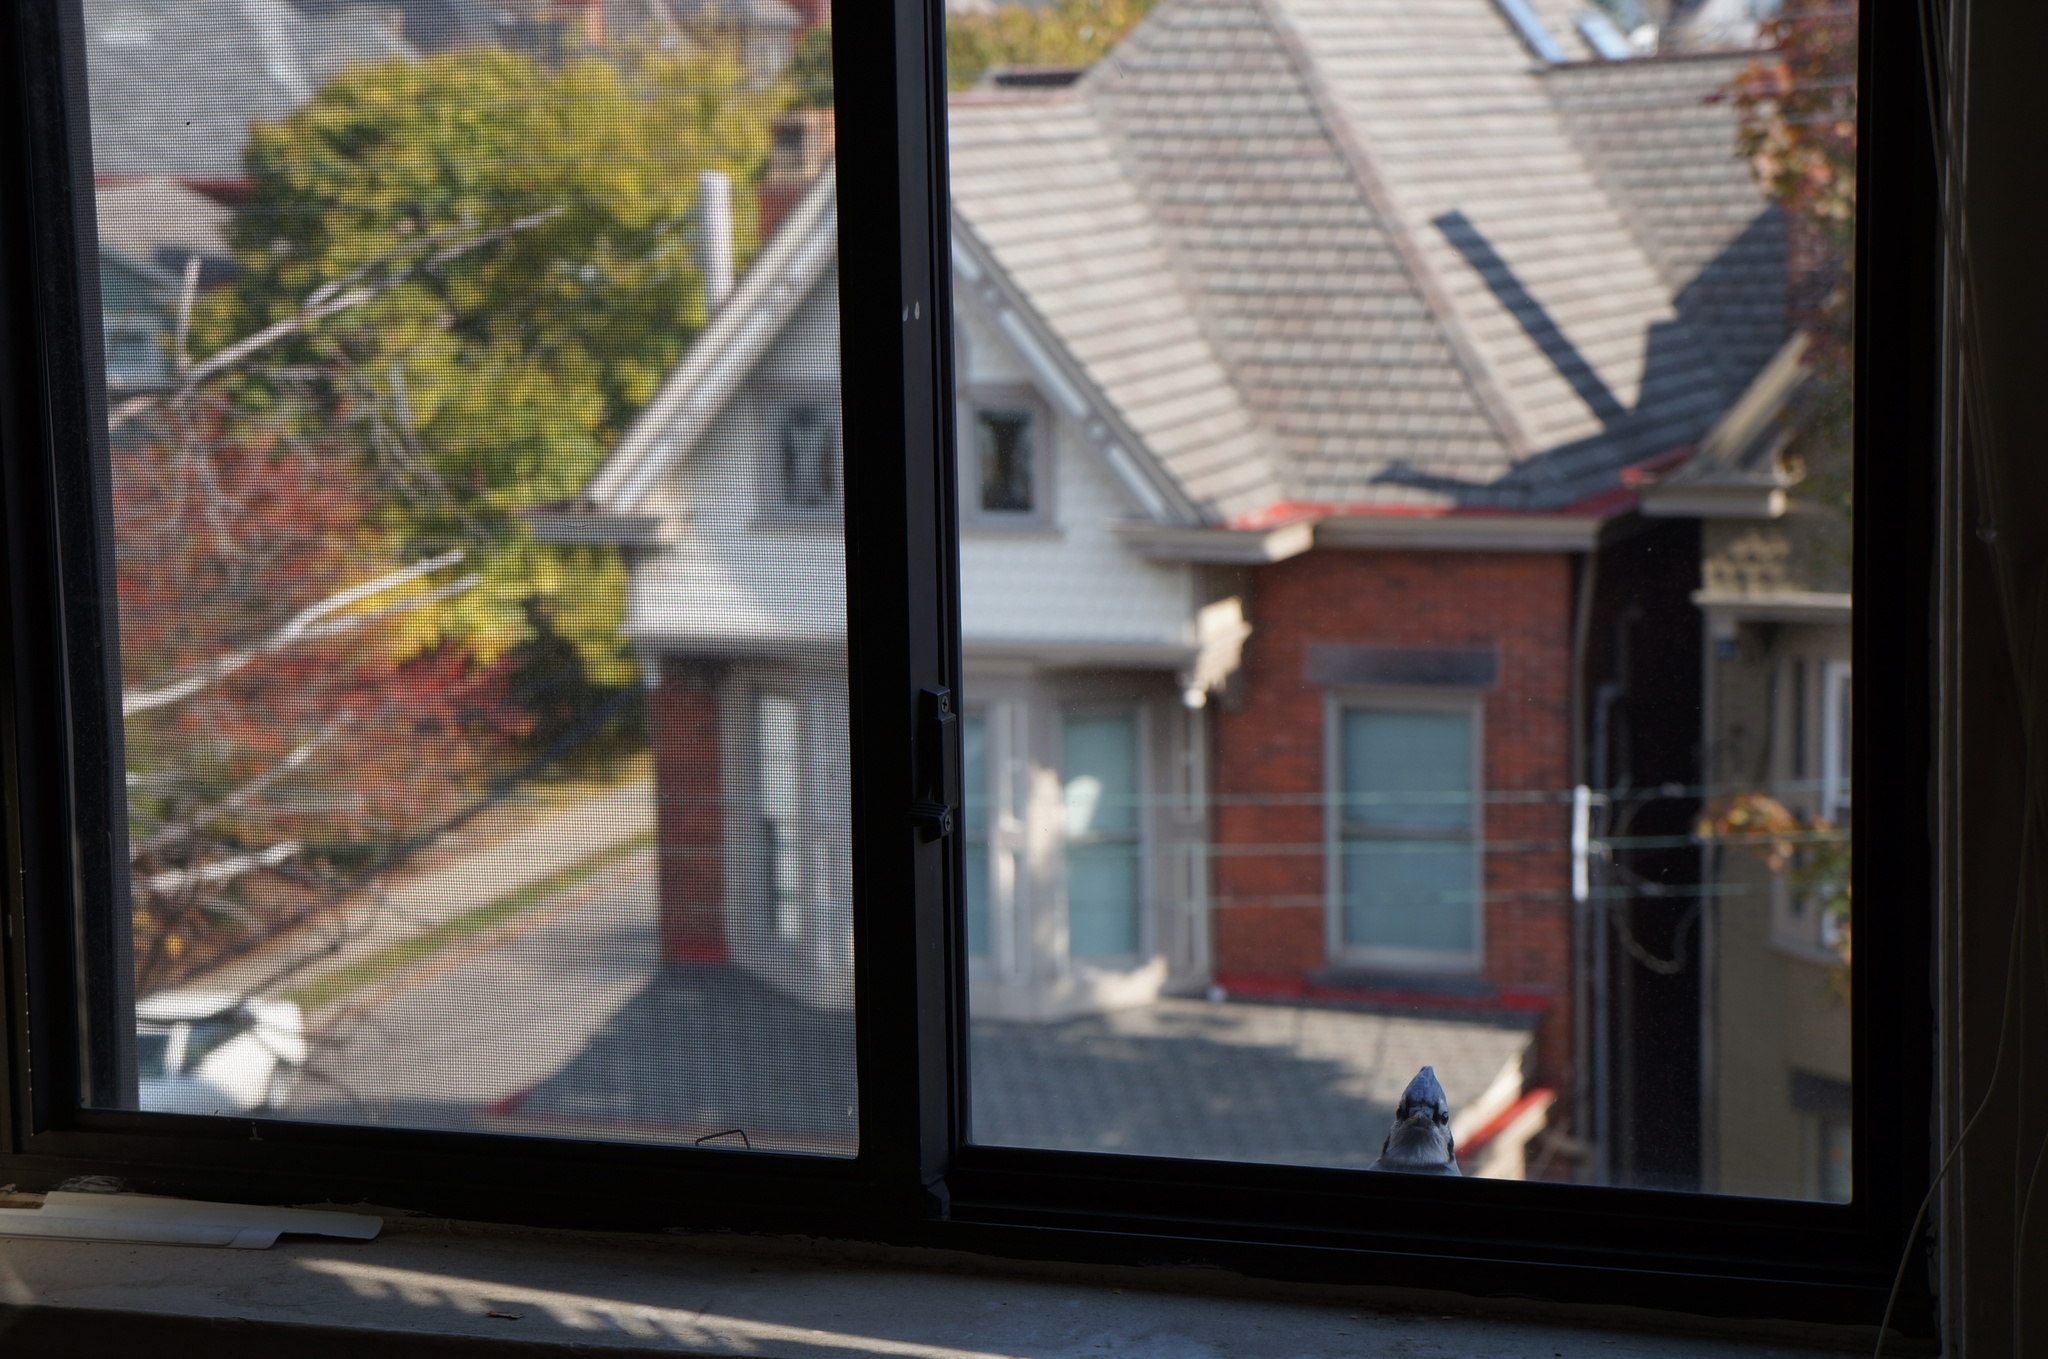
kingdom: Animalia
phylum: Chordata
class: Aves
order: Passeriformes
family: Corvidae
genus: Cyanocitta
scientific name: Cyanocitta cristata
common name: Blue jay
